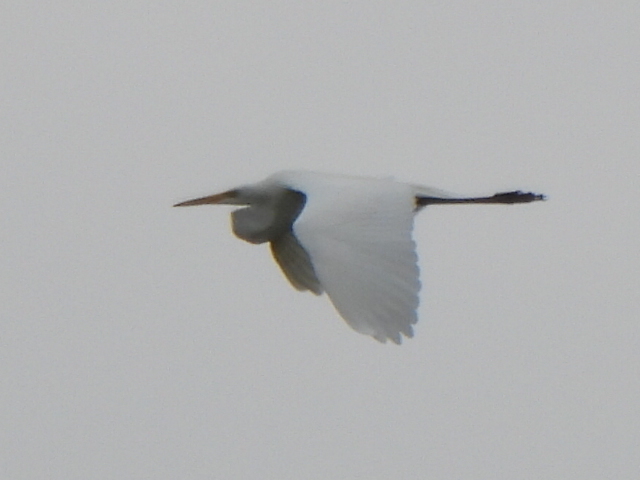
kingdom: Animalia
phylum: Chordata
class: Aves
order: Pelecaniformes
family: Ardeidae
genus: Ardea
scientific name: Ardea alba
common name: Great egret
